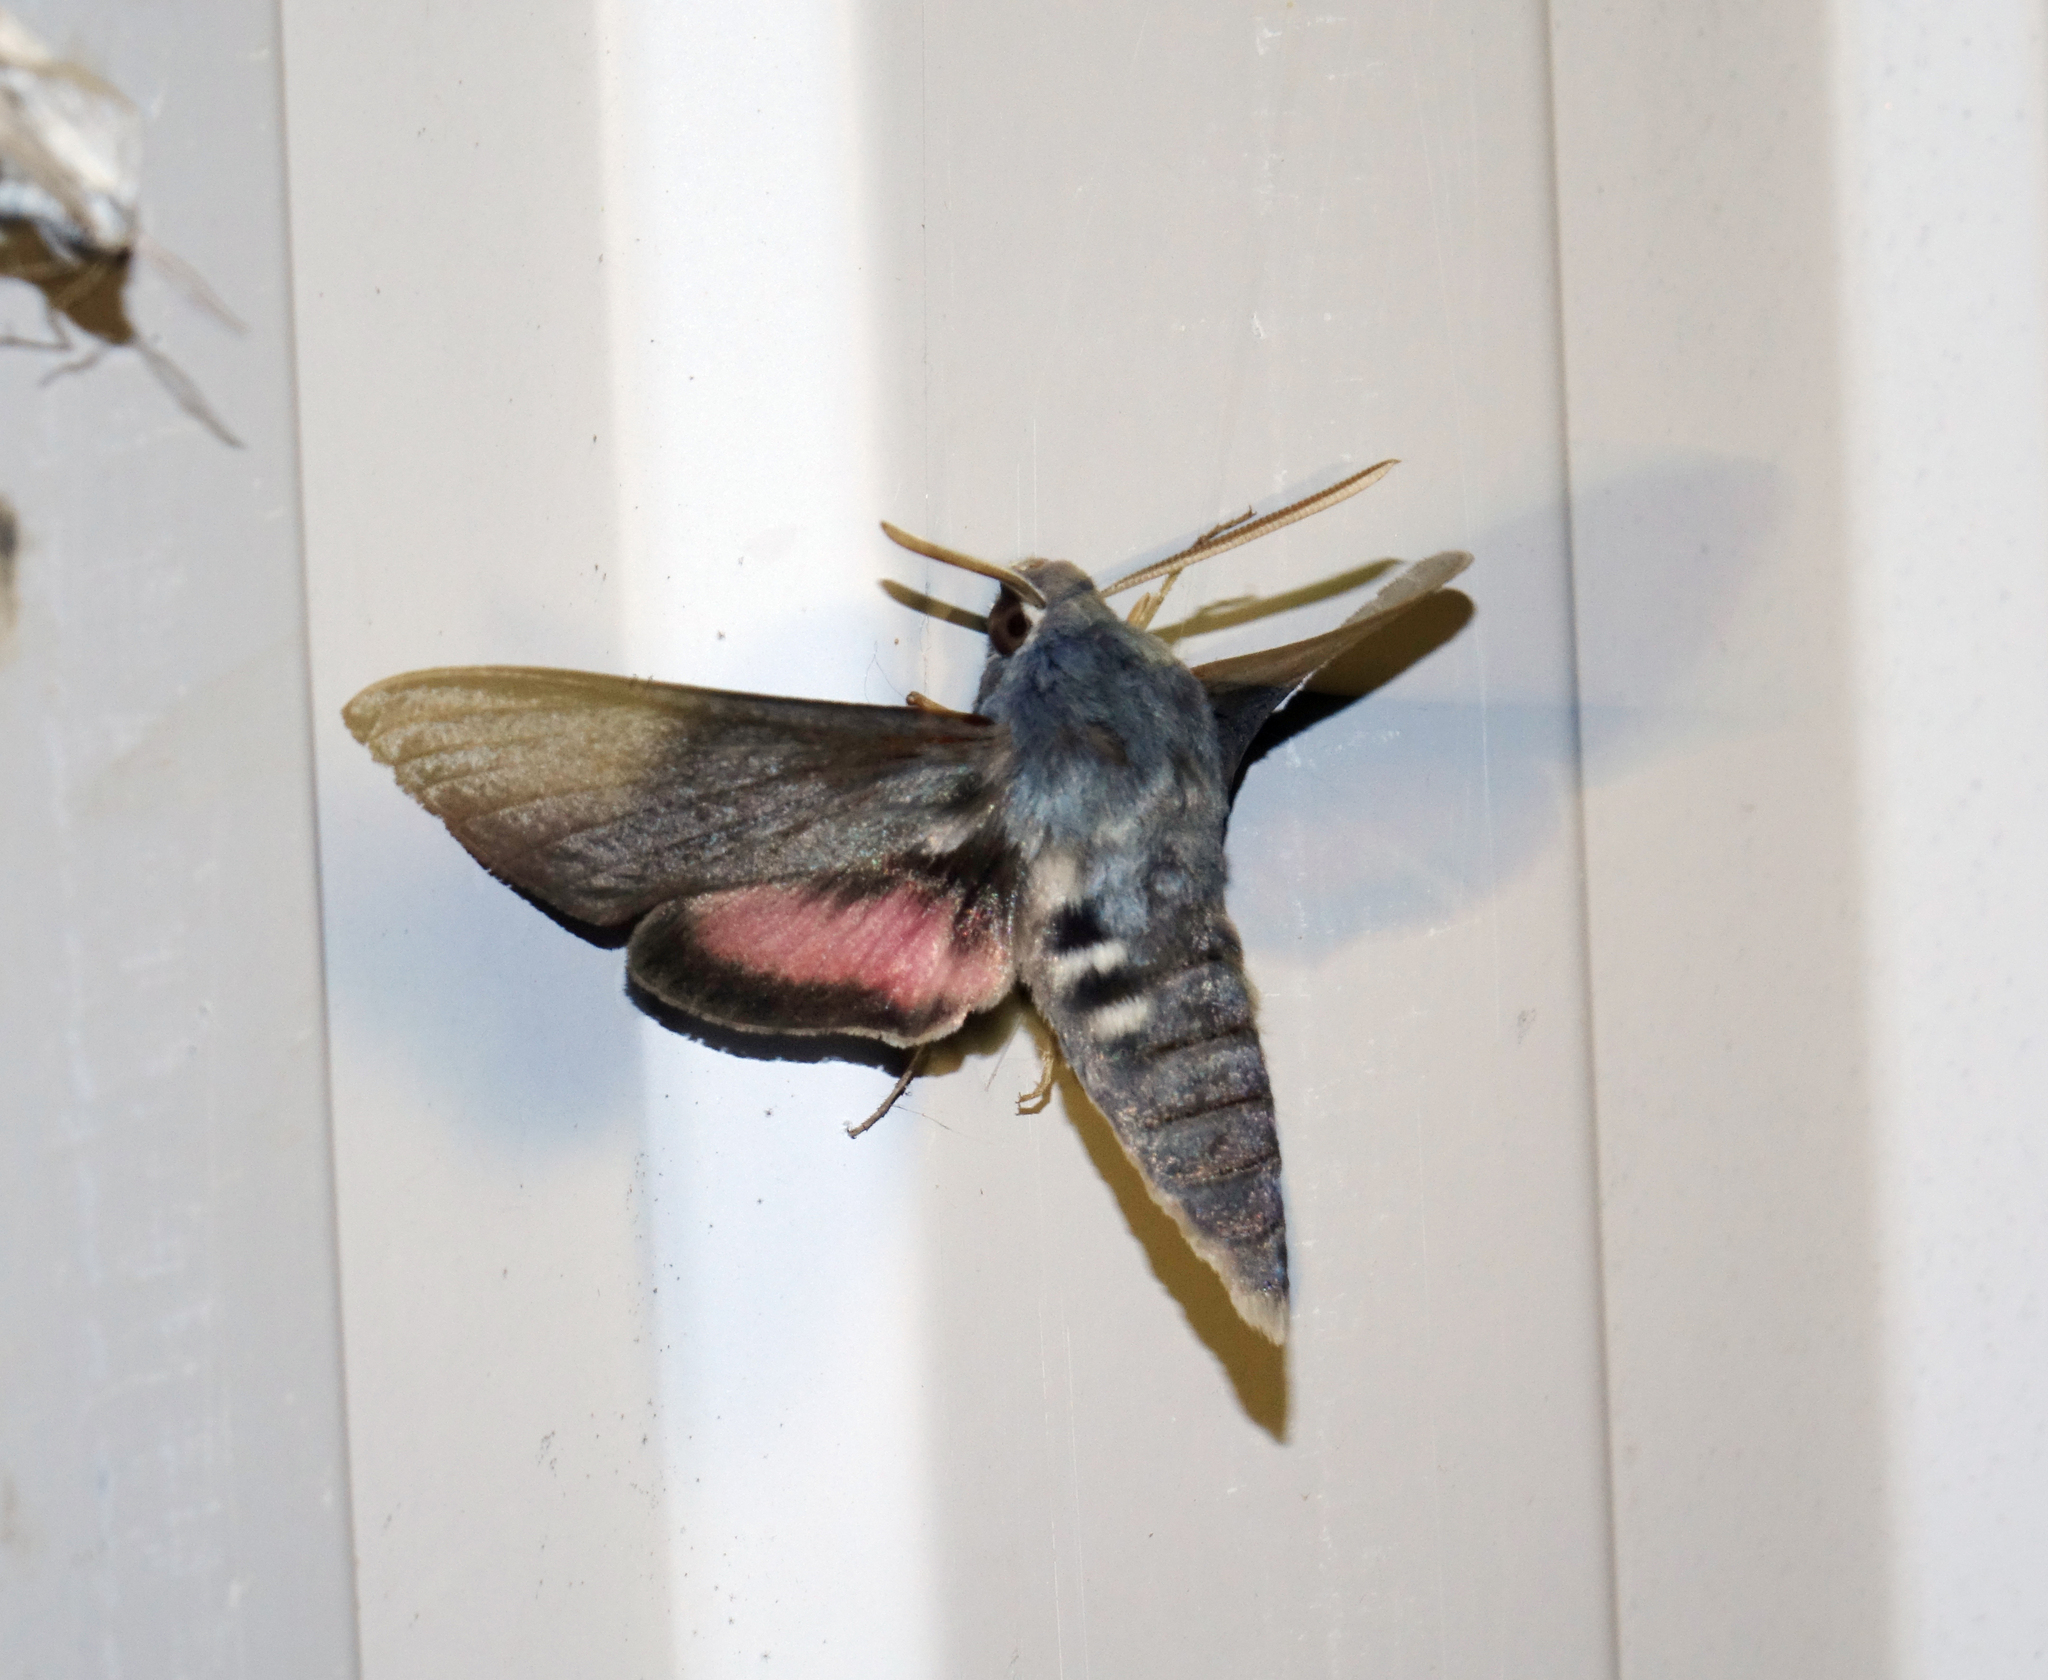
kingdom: Animalia
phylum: Arthropoda
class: Insecta
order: Lepidoptera
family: Sphingidae
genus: Hyles
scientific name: Hyles vespertilio
